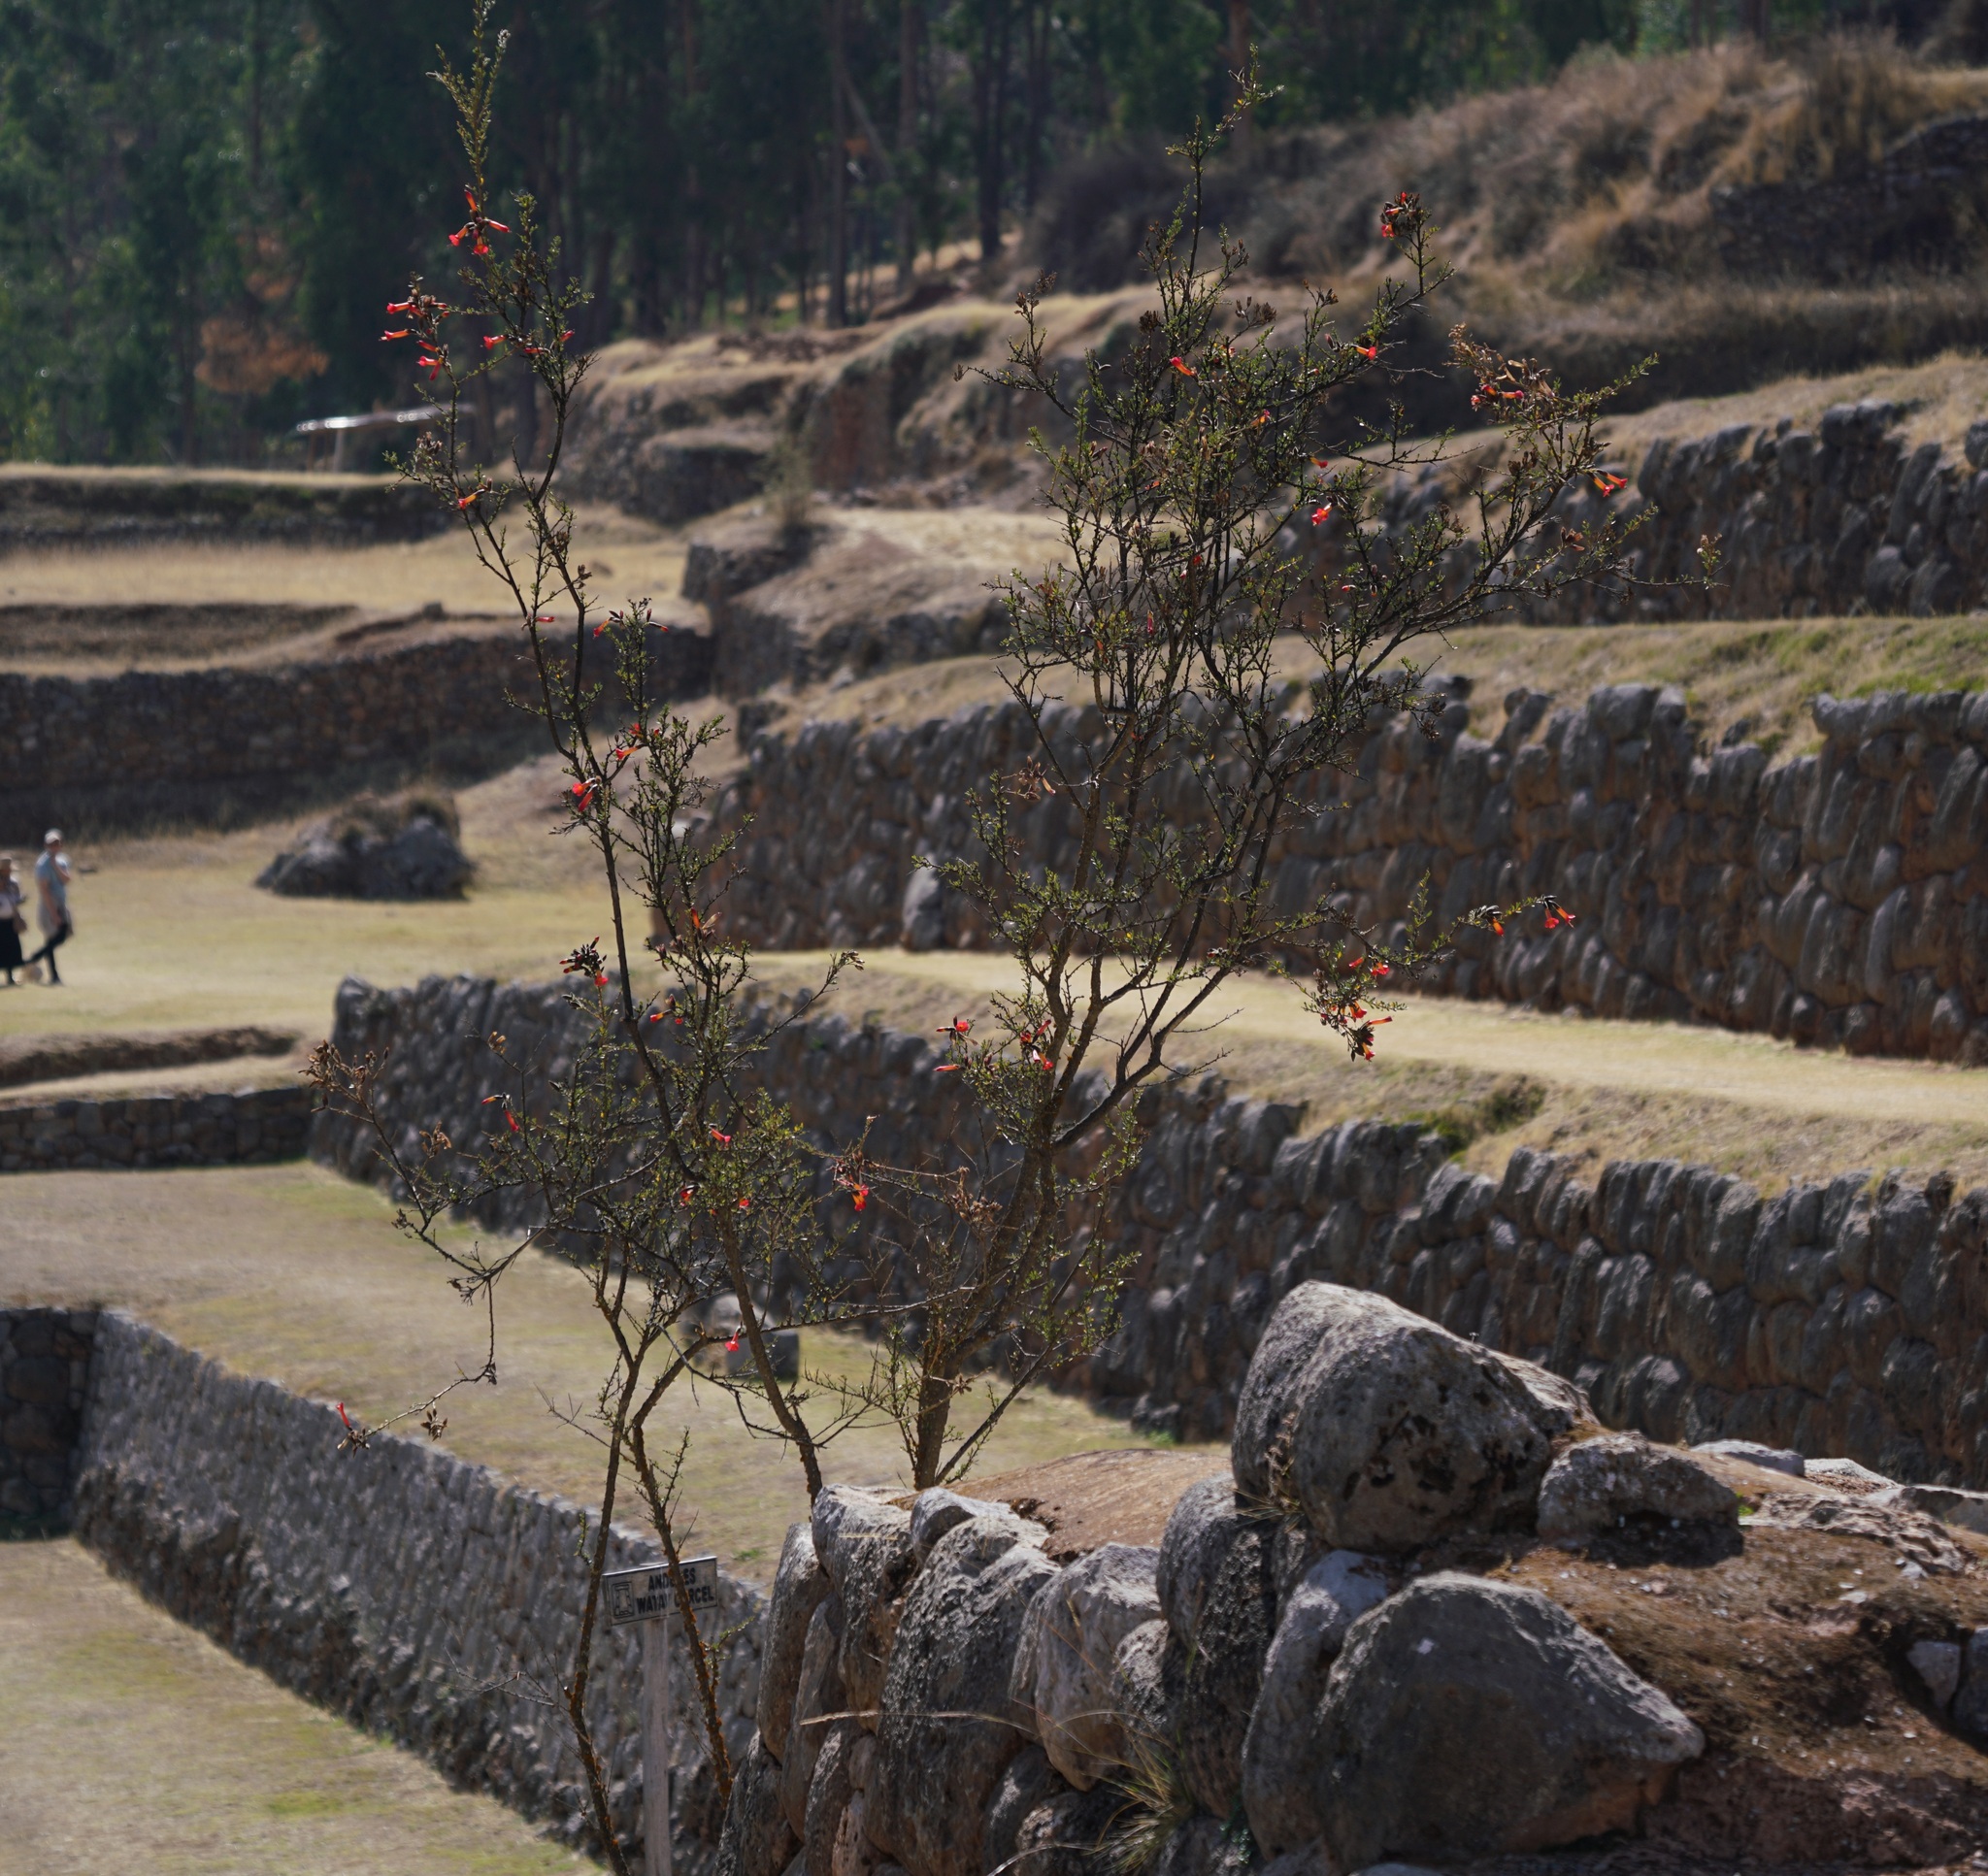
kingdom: Plantae
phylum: Tracheophyta
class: Magnoliopsida
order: Ericales
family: Polemoniaceae
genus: Cantua
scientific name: Cantua buxifolia
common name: Sacred-flower-of-the-incas
